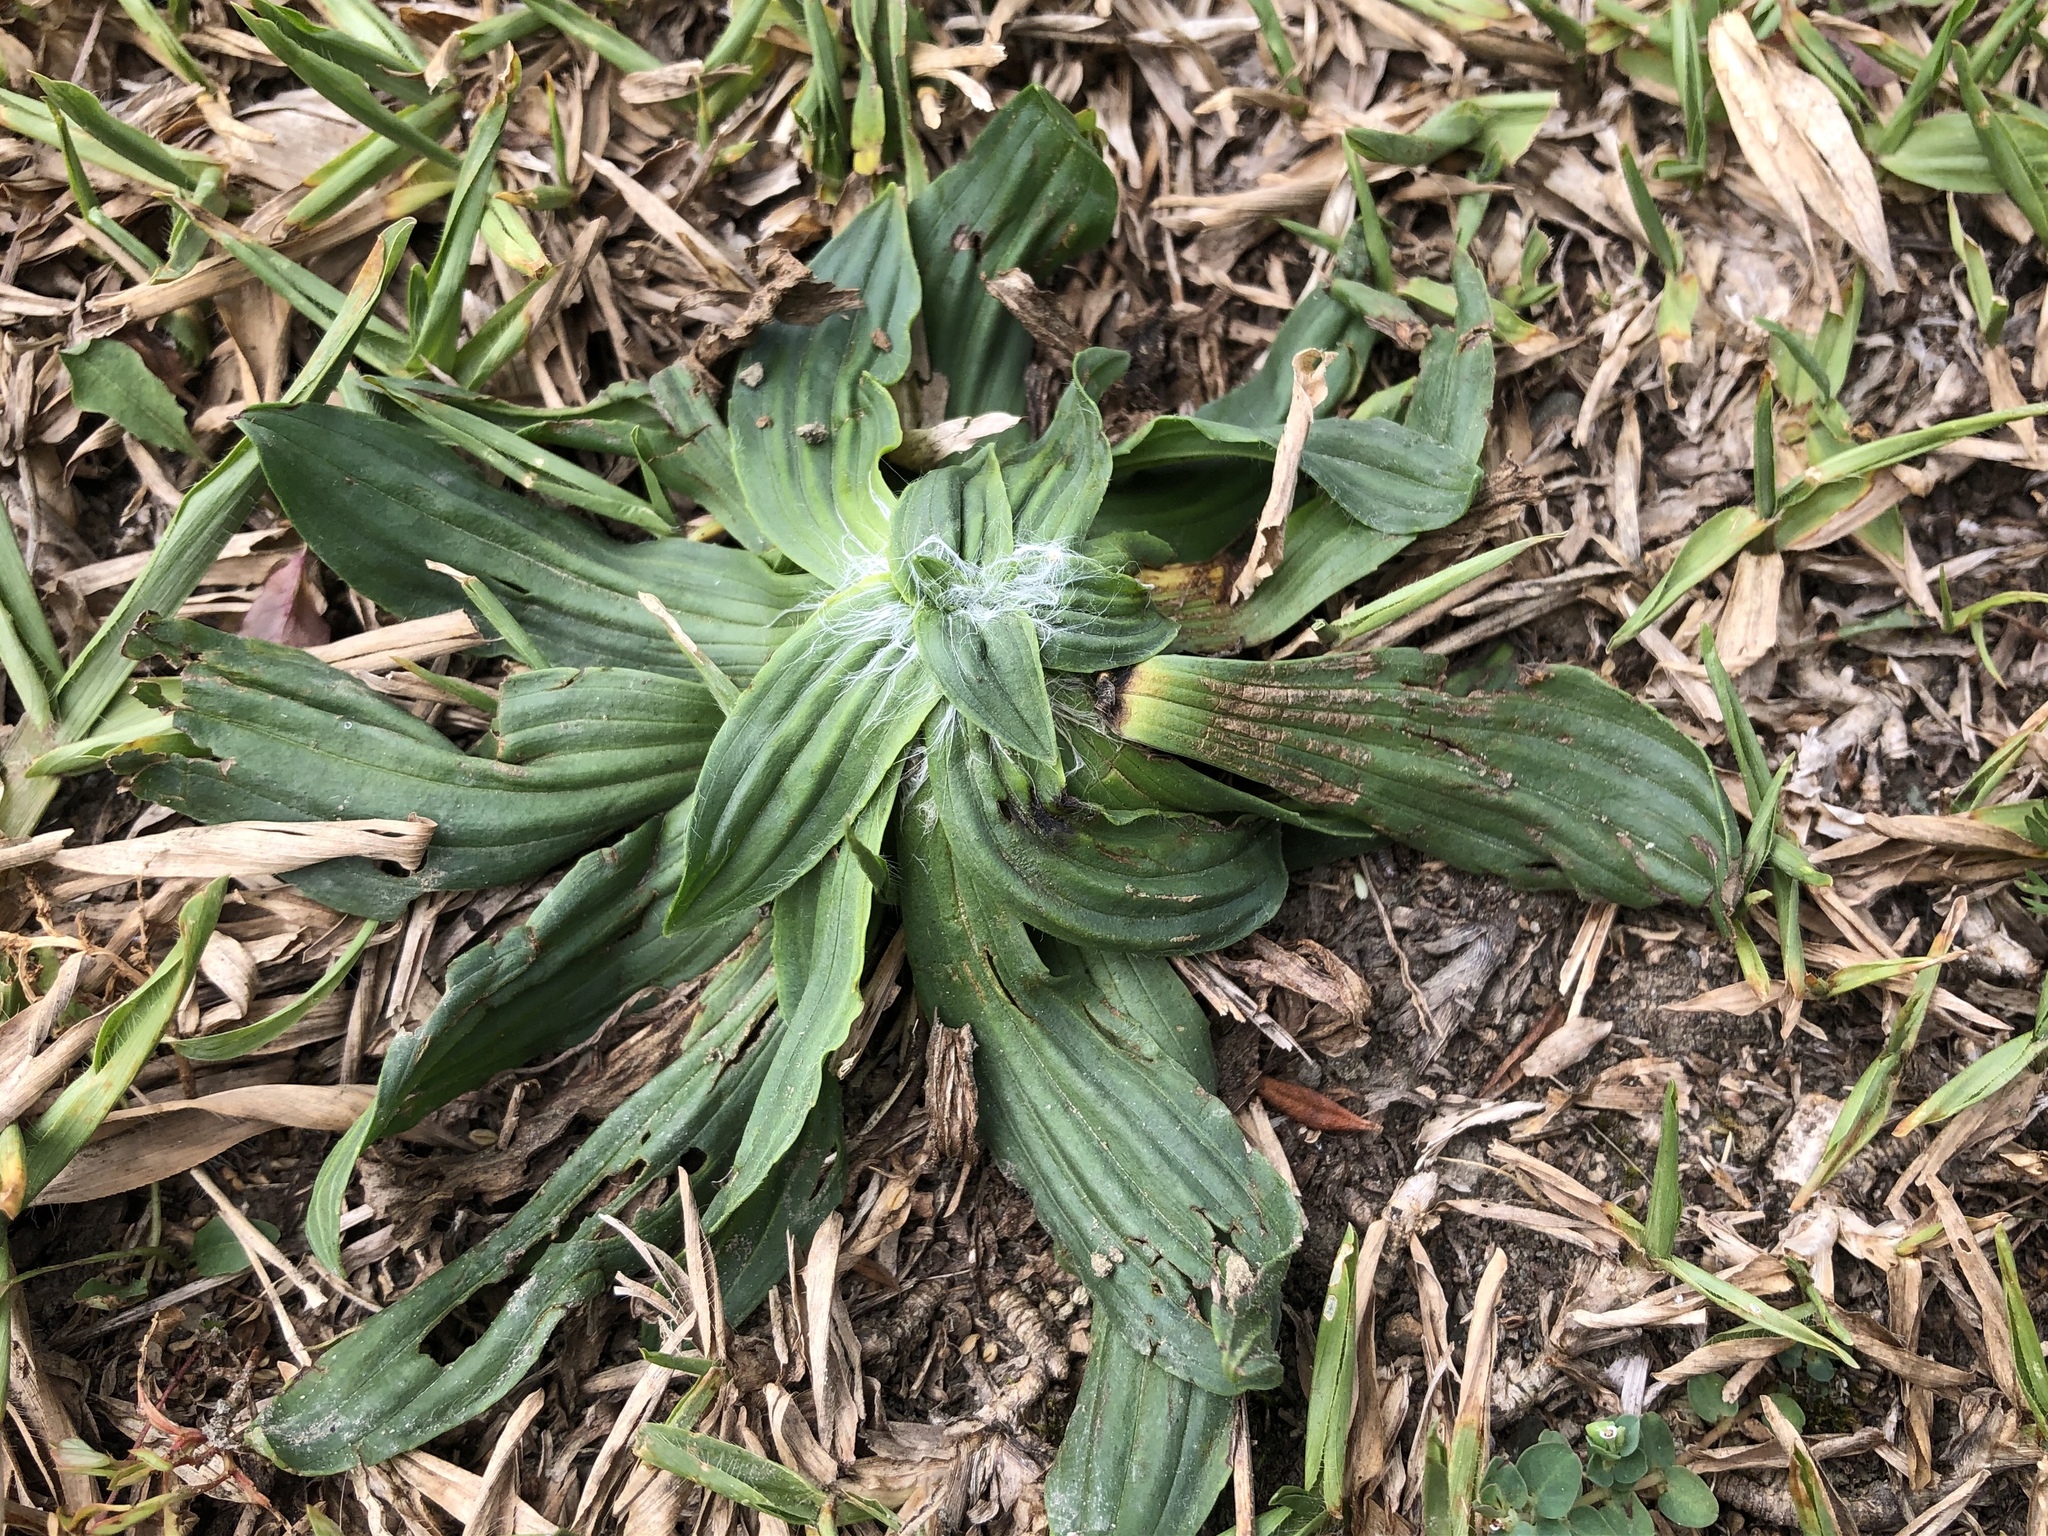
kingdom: Plantae
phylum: Tracheophyta
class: Magnoliopsida
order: Lamiales
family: Plantaginaceae
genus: Plantago
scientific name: Plantago lanceolata
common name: Ribwort plantain
